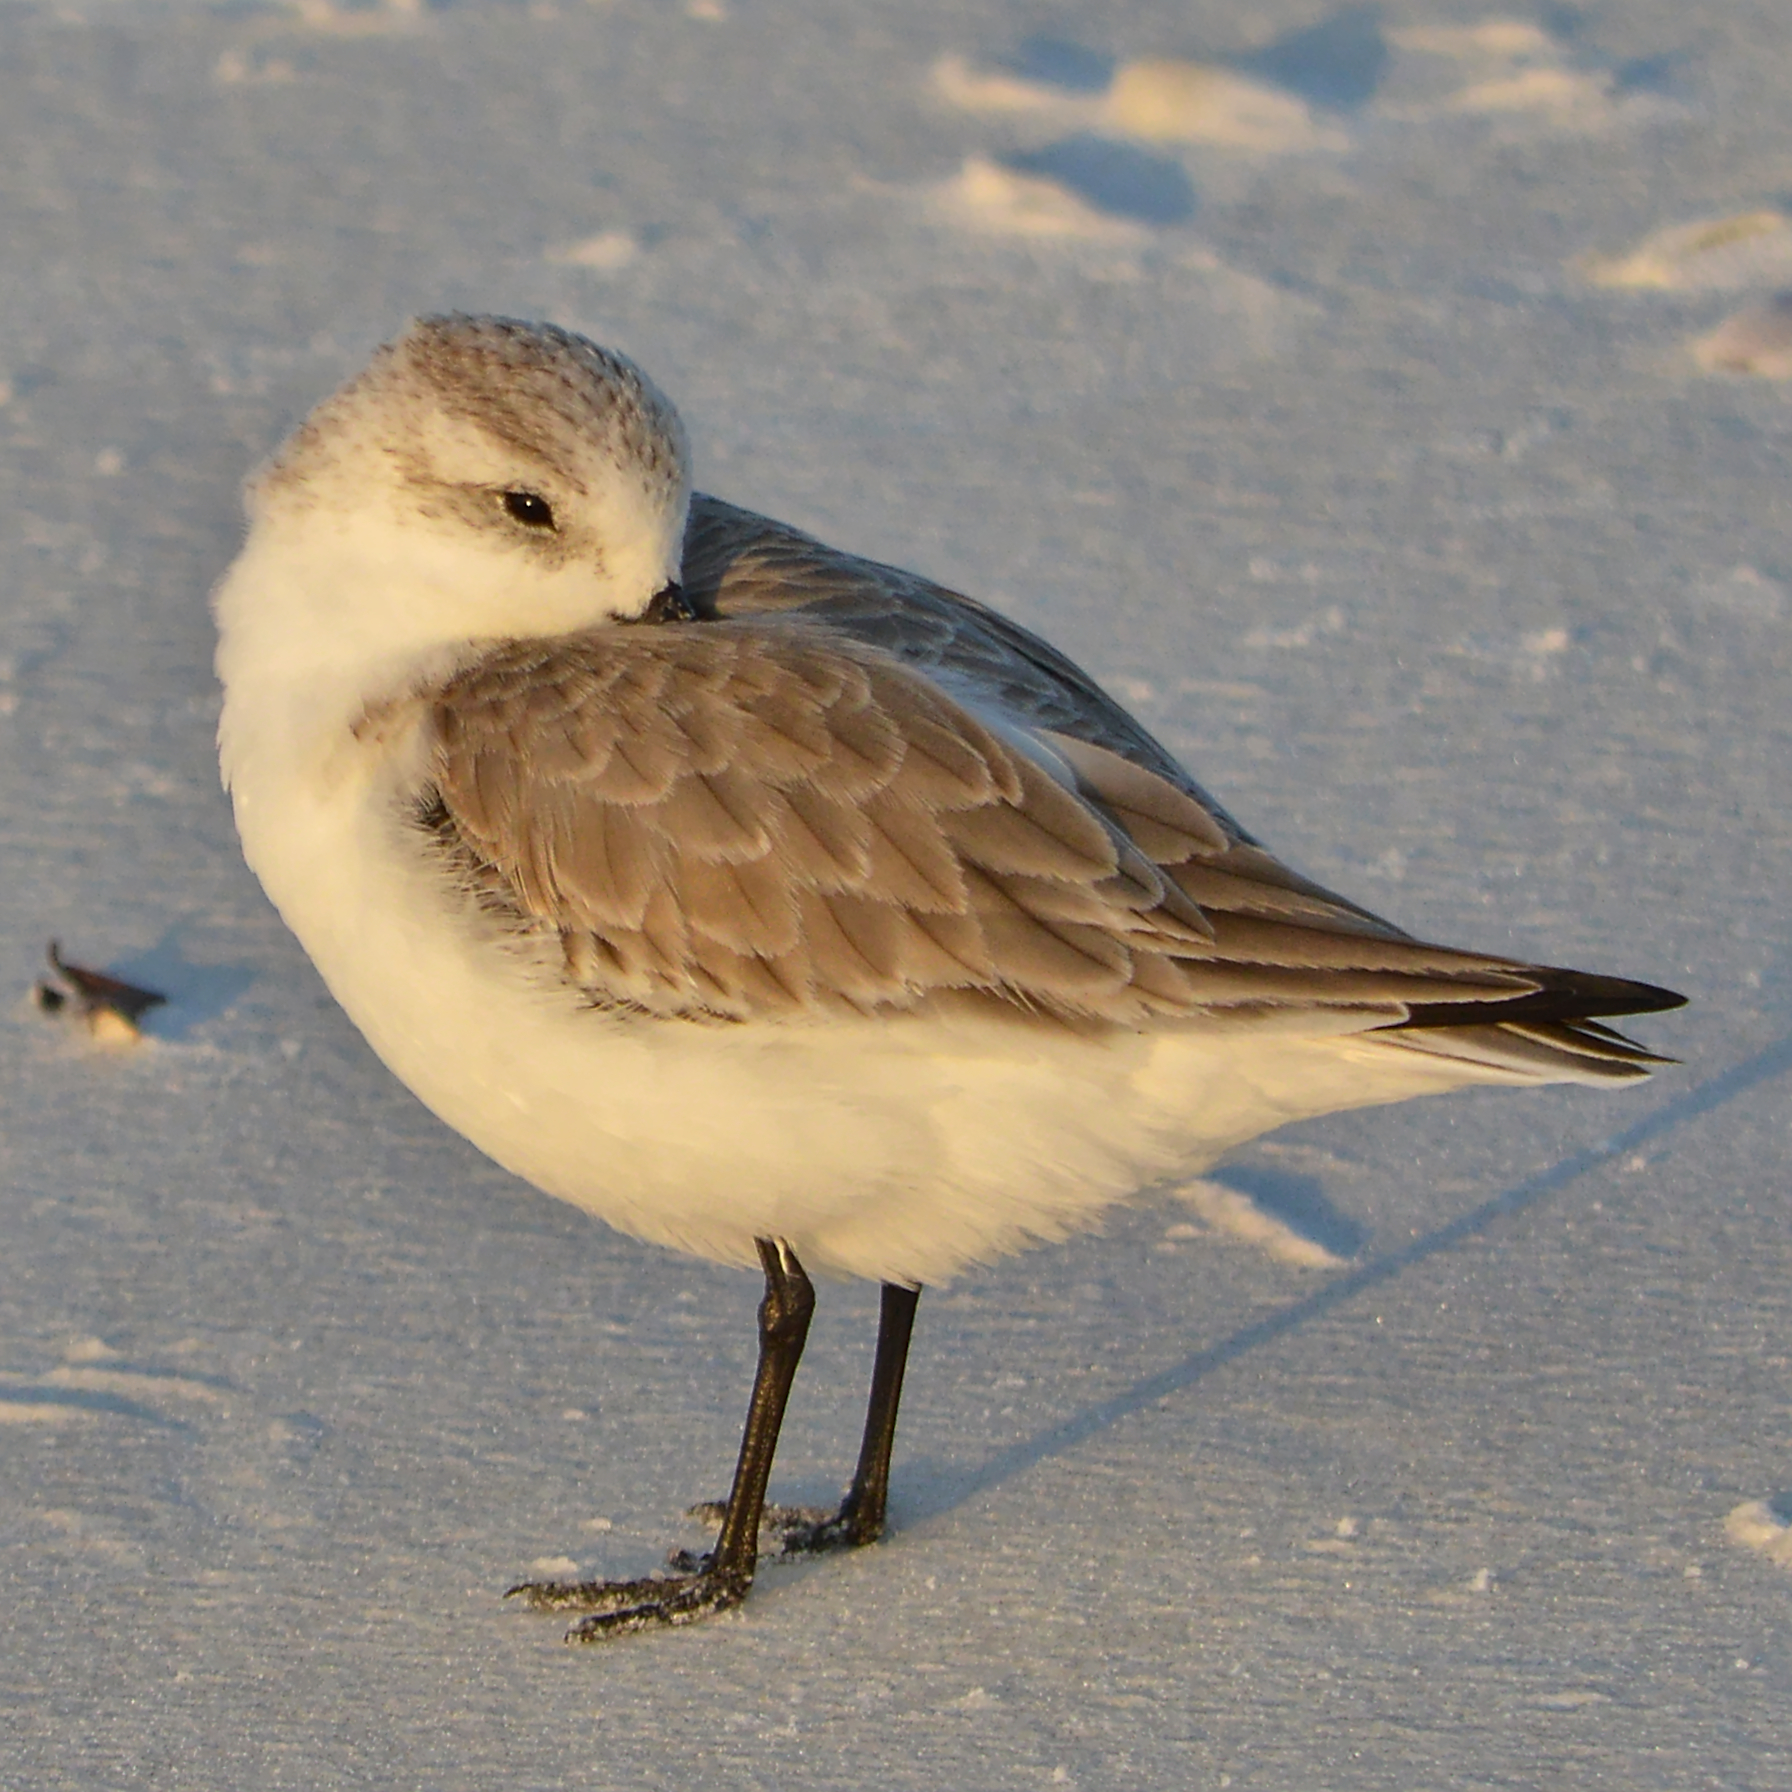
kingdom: Animalia
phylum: Chordata
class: Aves
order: Charadriiformes
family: Scolopacidae
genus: Calidris
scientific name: Calidris alba
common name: Sanderling
